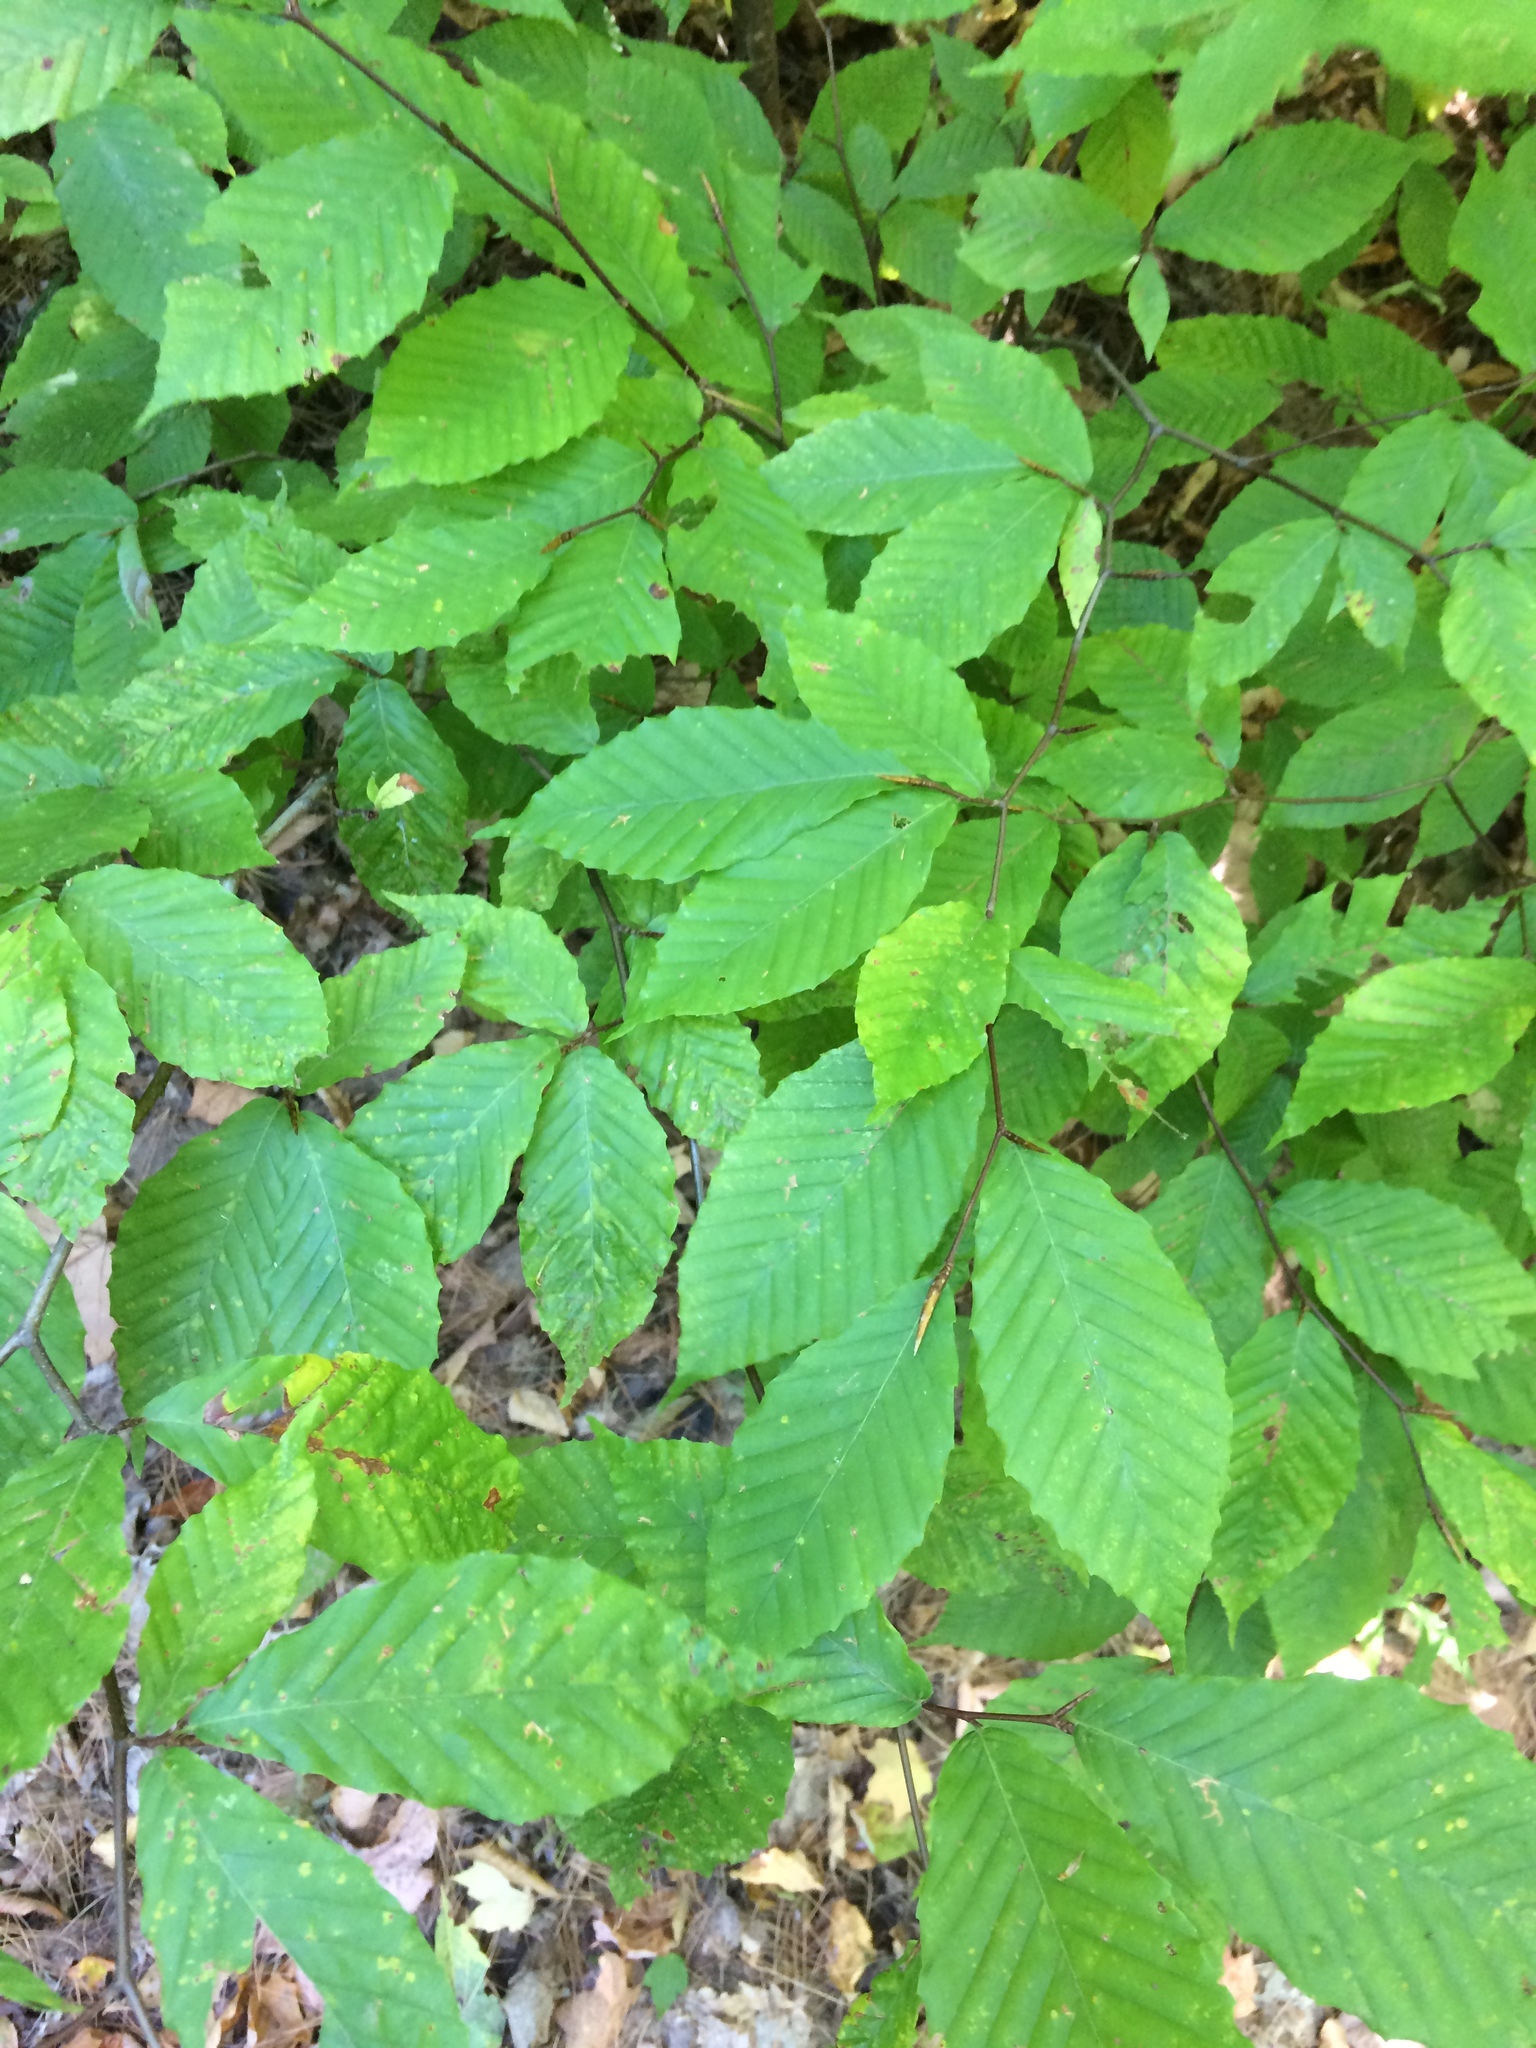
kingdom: Plantae
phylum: Tracheophyta
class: Magnoliopsida
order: Fagales
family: Fagaceae
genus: Fagus
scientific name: Fagus grandifolia
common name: American beech
